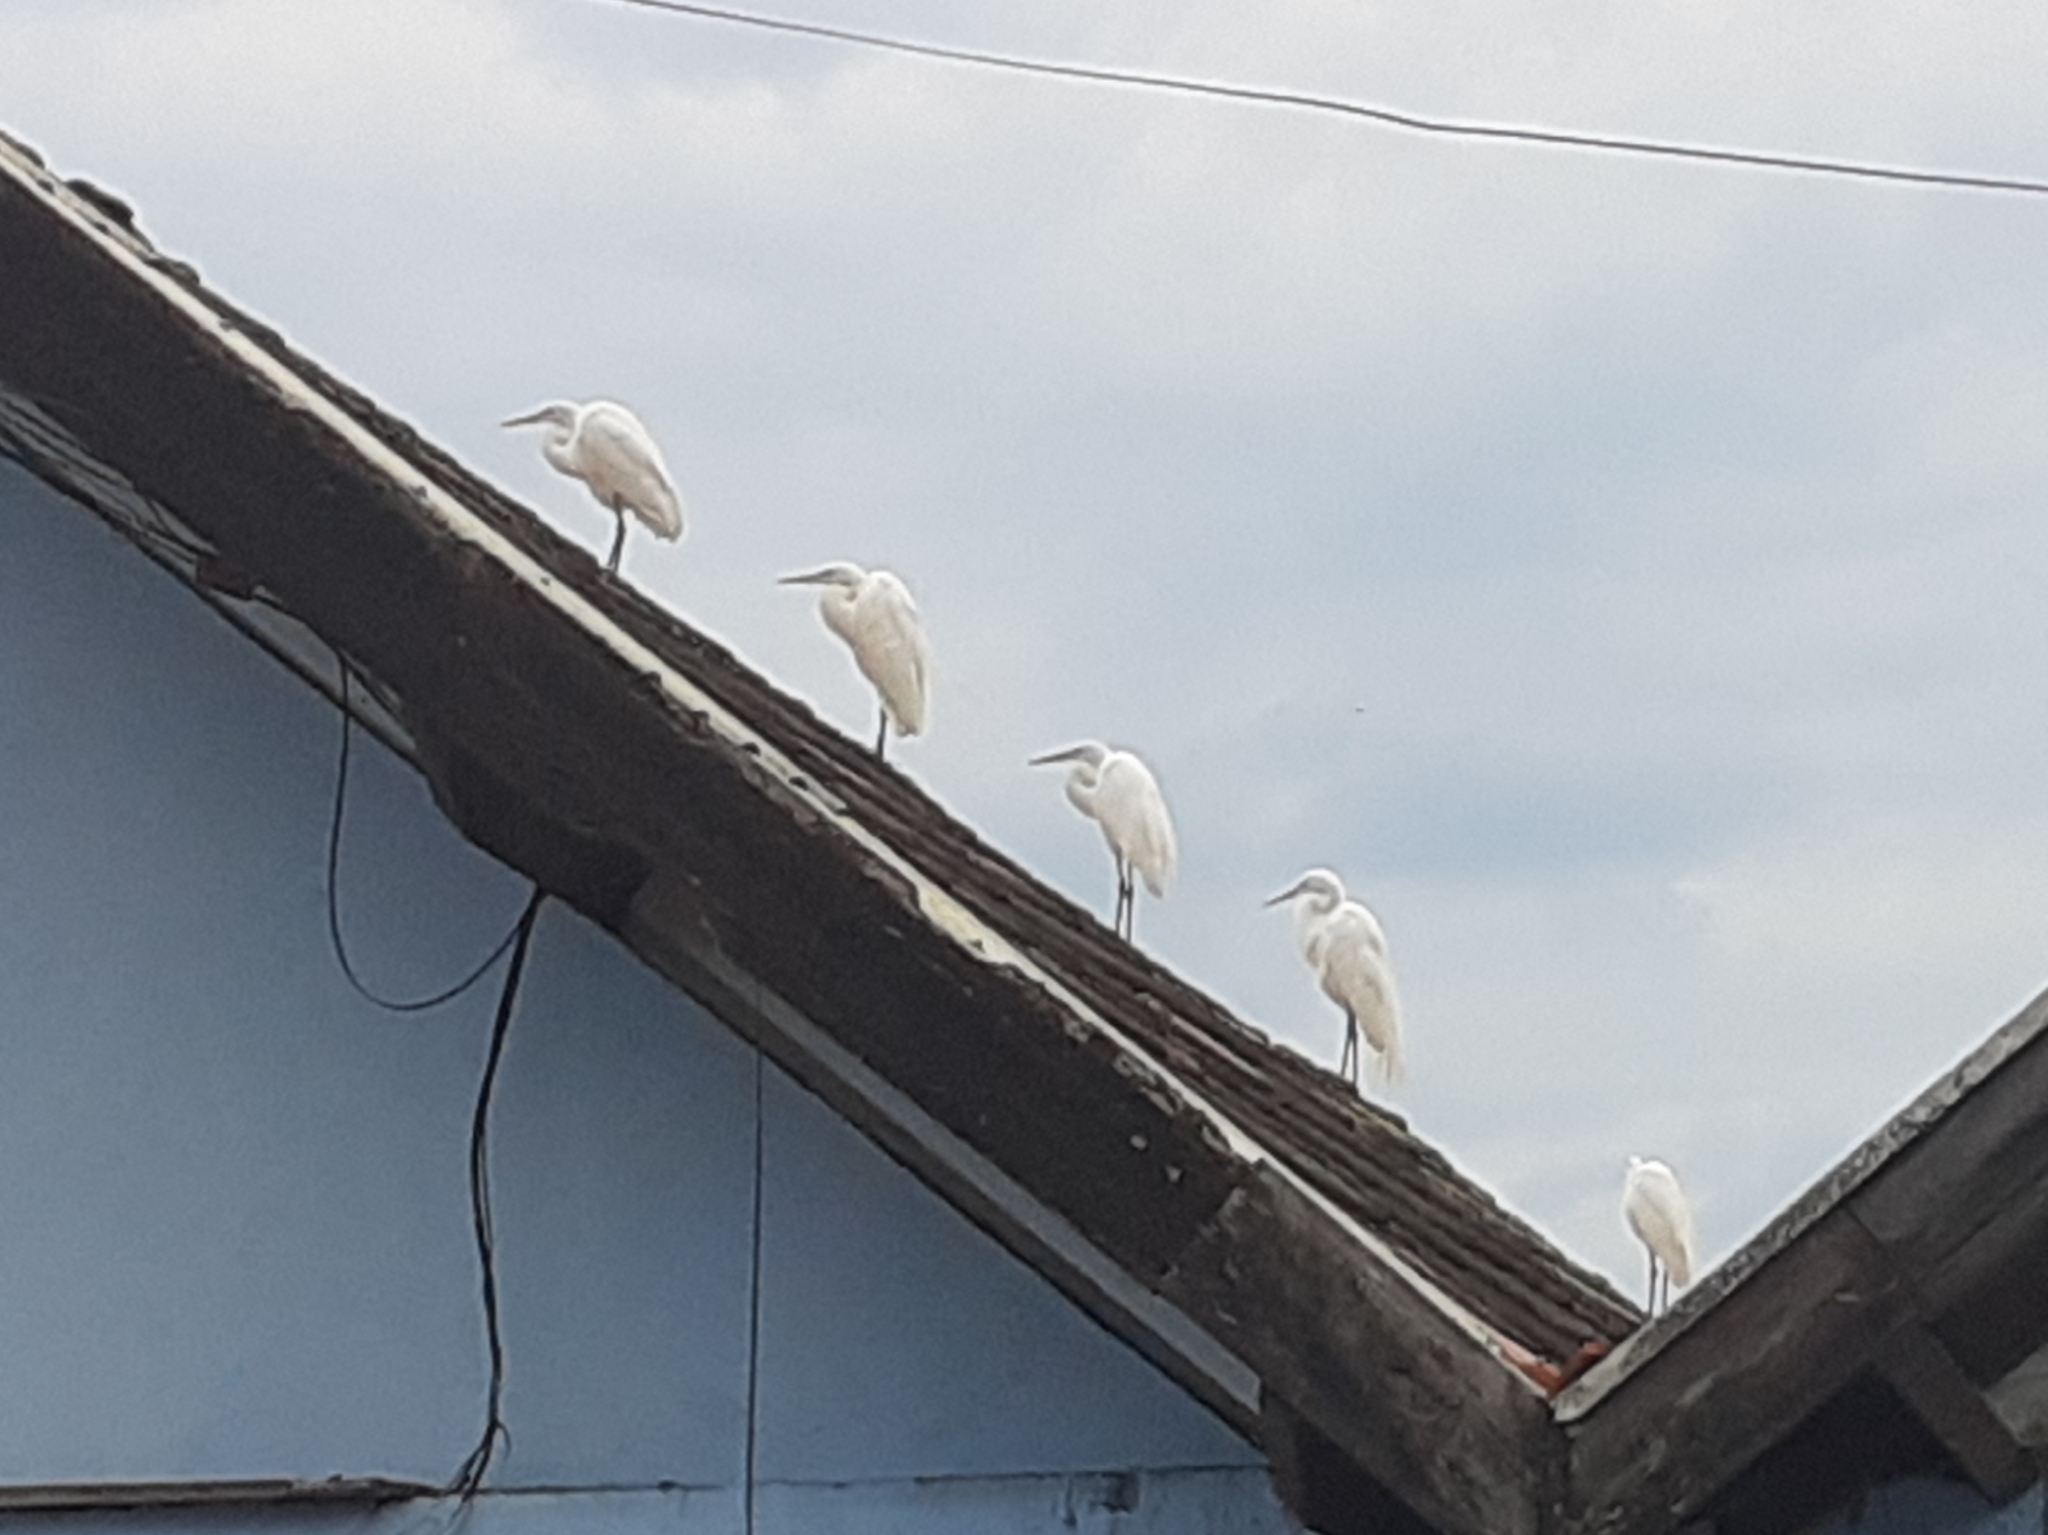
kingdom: Animalia
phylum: Chordata
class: Aves
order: Pelecaniformes
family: Ardeidae
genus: Ardea
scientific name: Ardea alba
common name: Great egret
